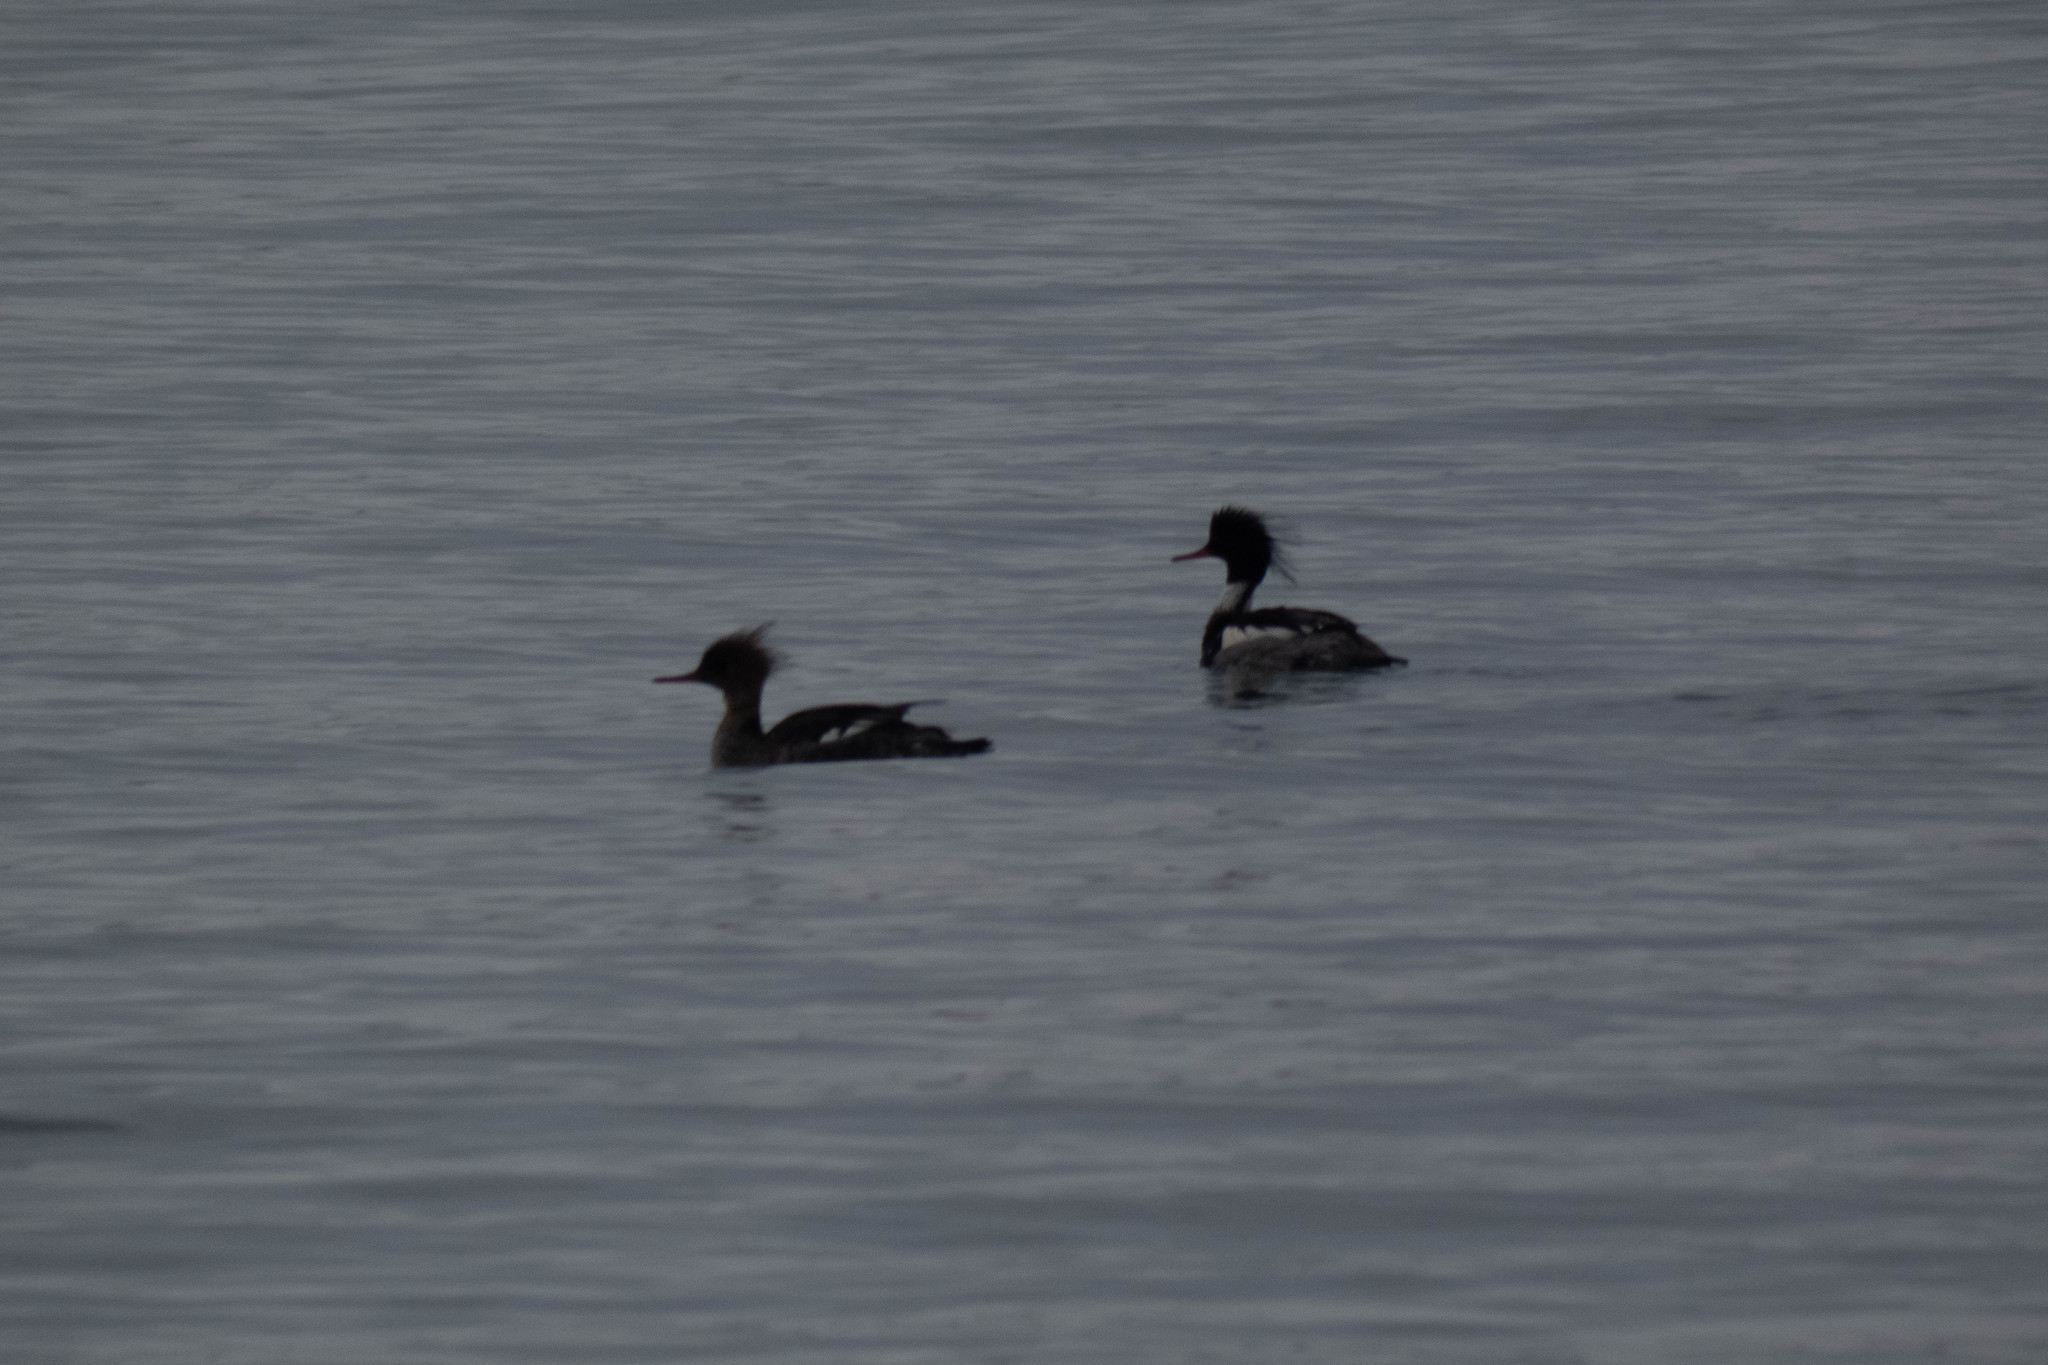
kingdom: Animalia
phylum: Chordata
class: Aves
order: Anseriformes
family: Anatidae
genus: Mergus
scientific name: Mergus serrator
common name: Red-breasted merganser
